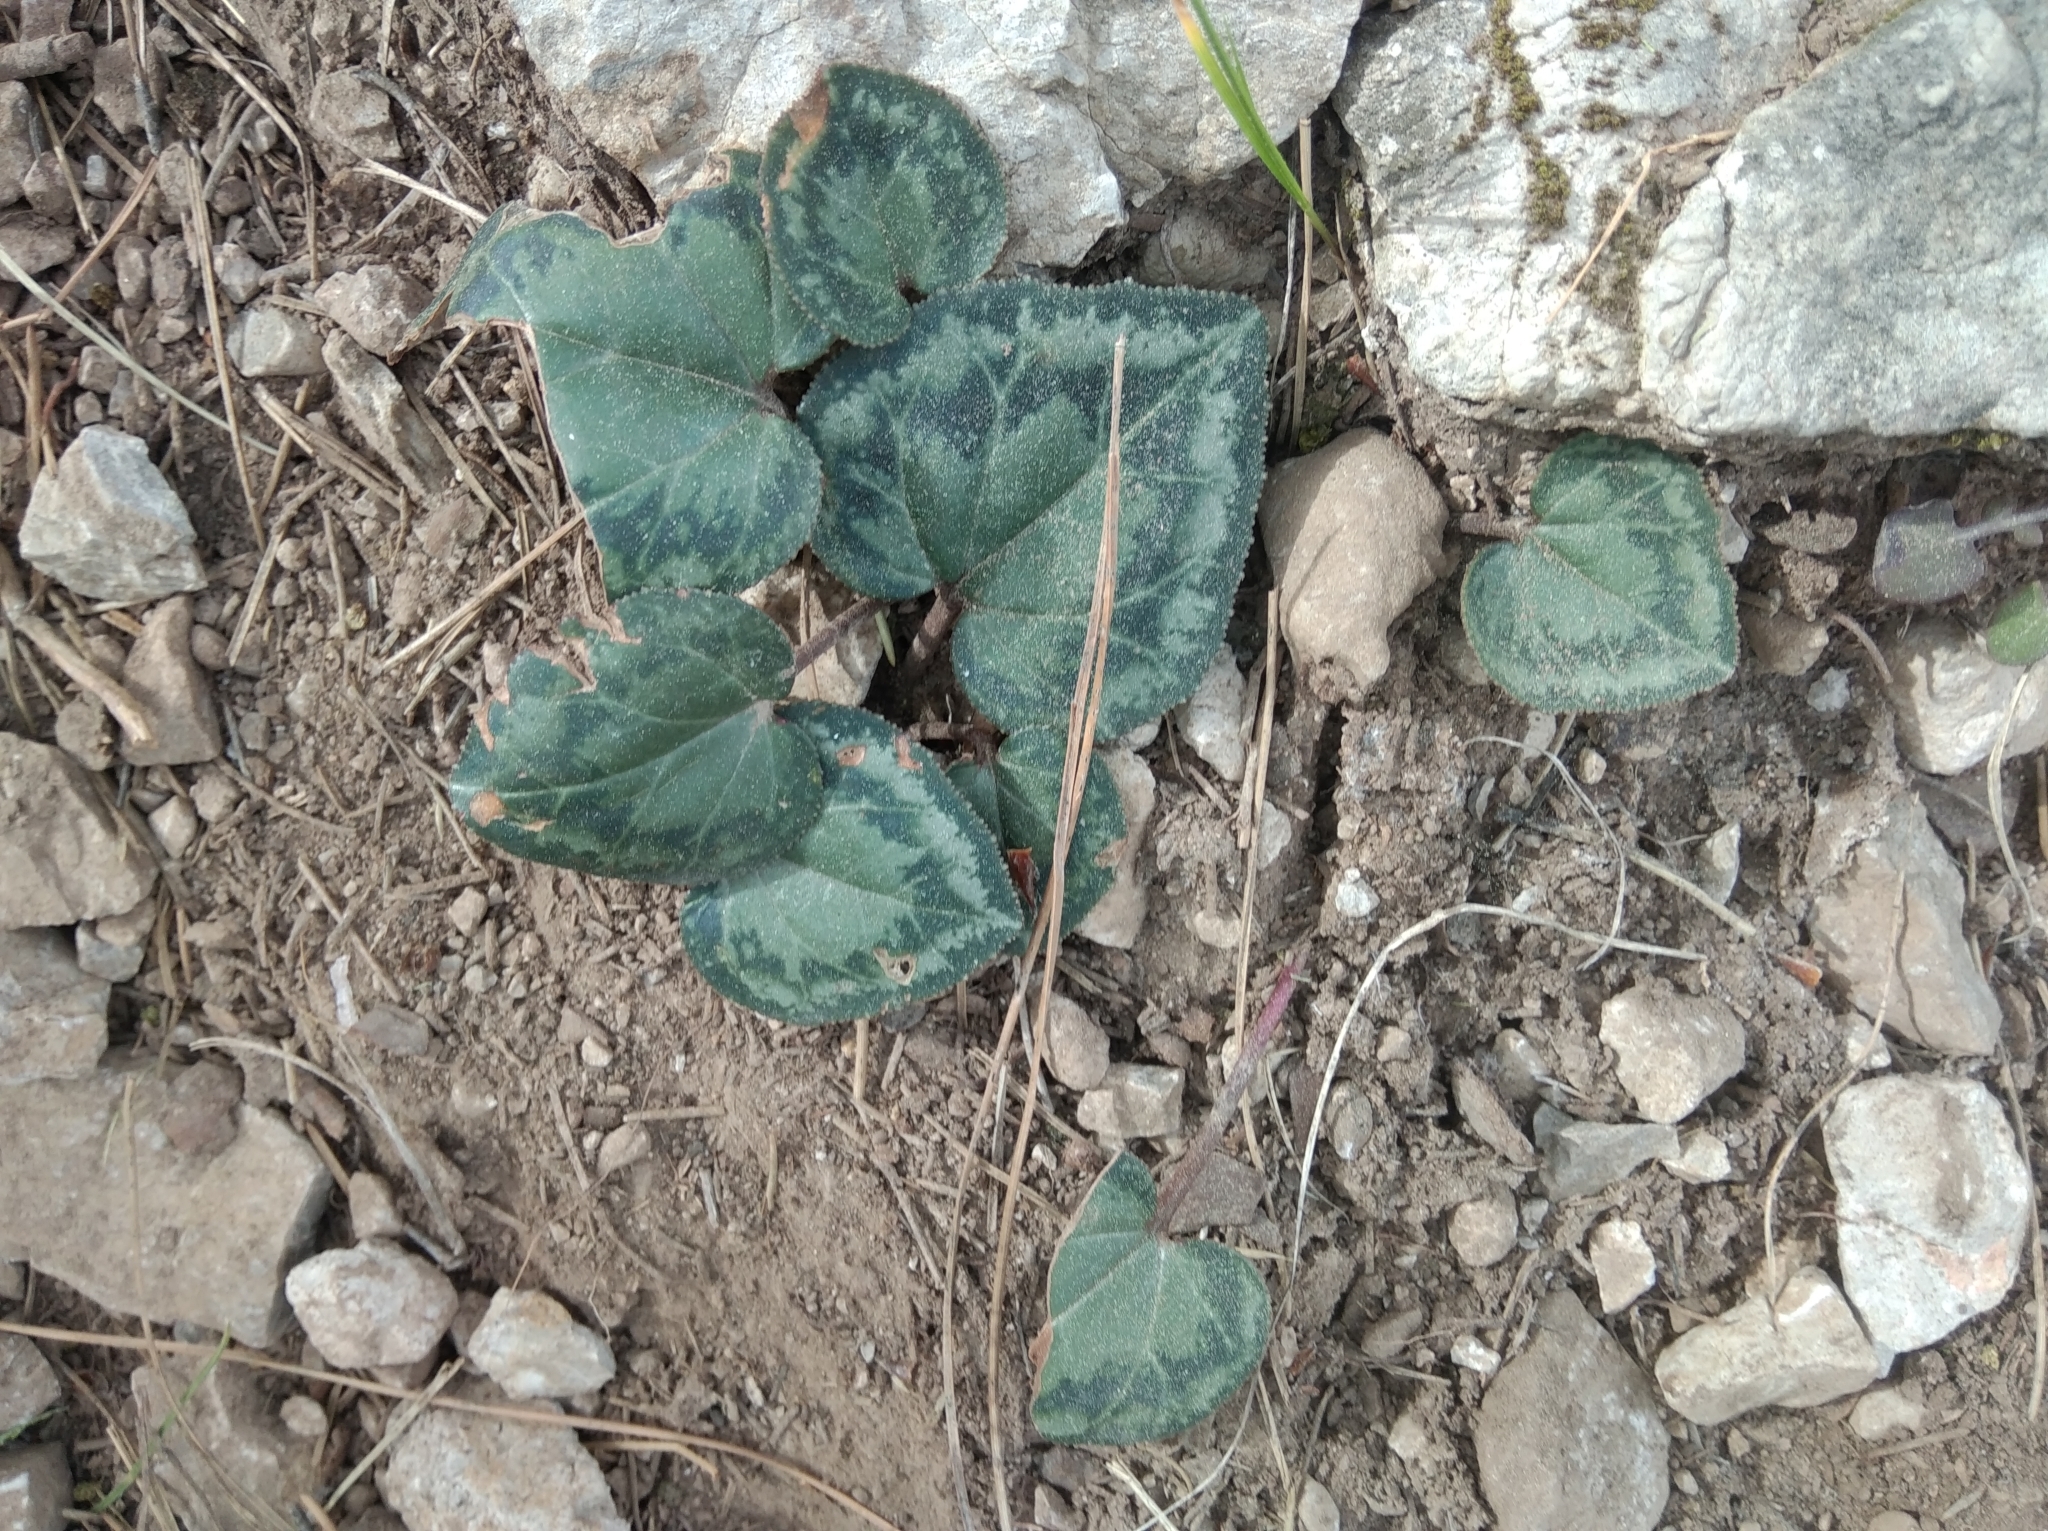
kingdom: Plantae
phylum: Tracheophyta
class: Magnoliopsida
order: Ericales
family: Primulaceae
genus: Cyclamen
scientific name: Cyclamen graecum
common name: Greek cyclamen
